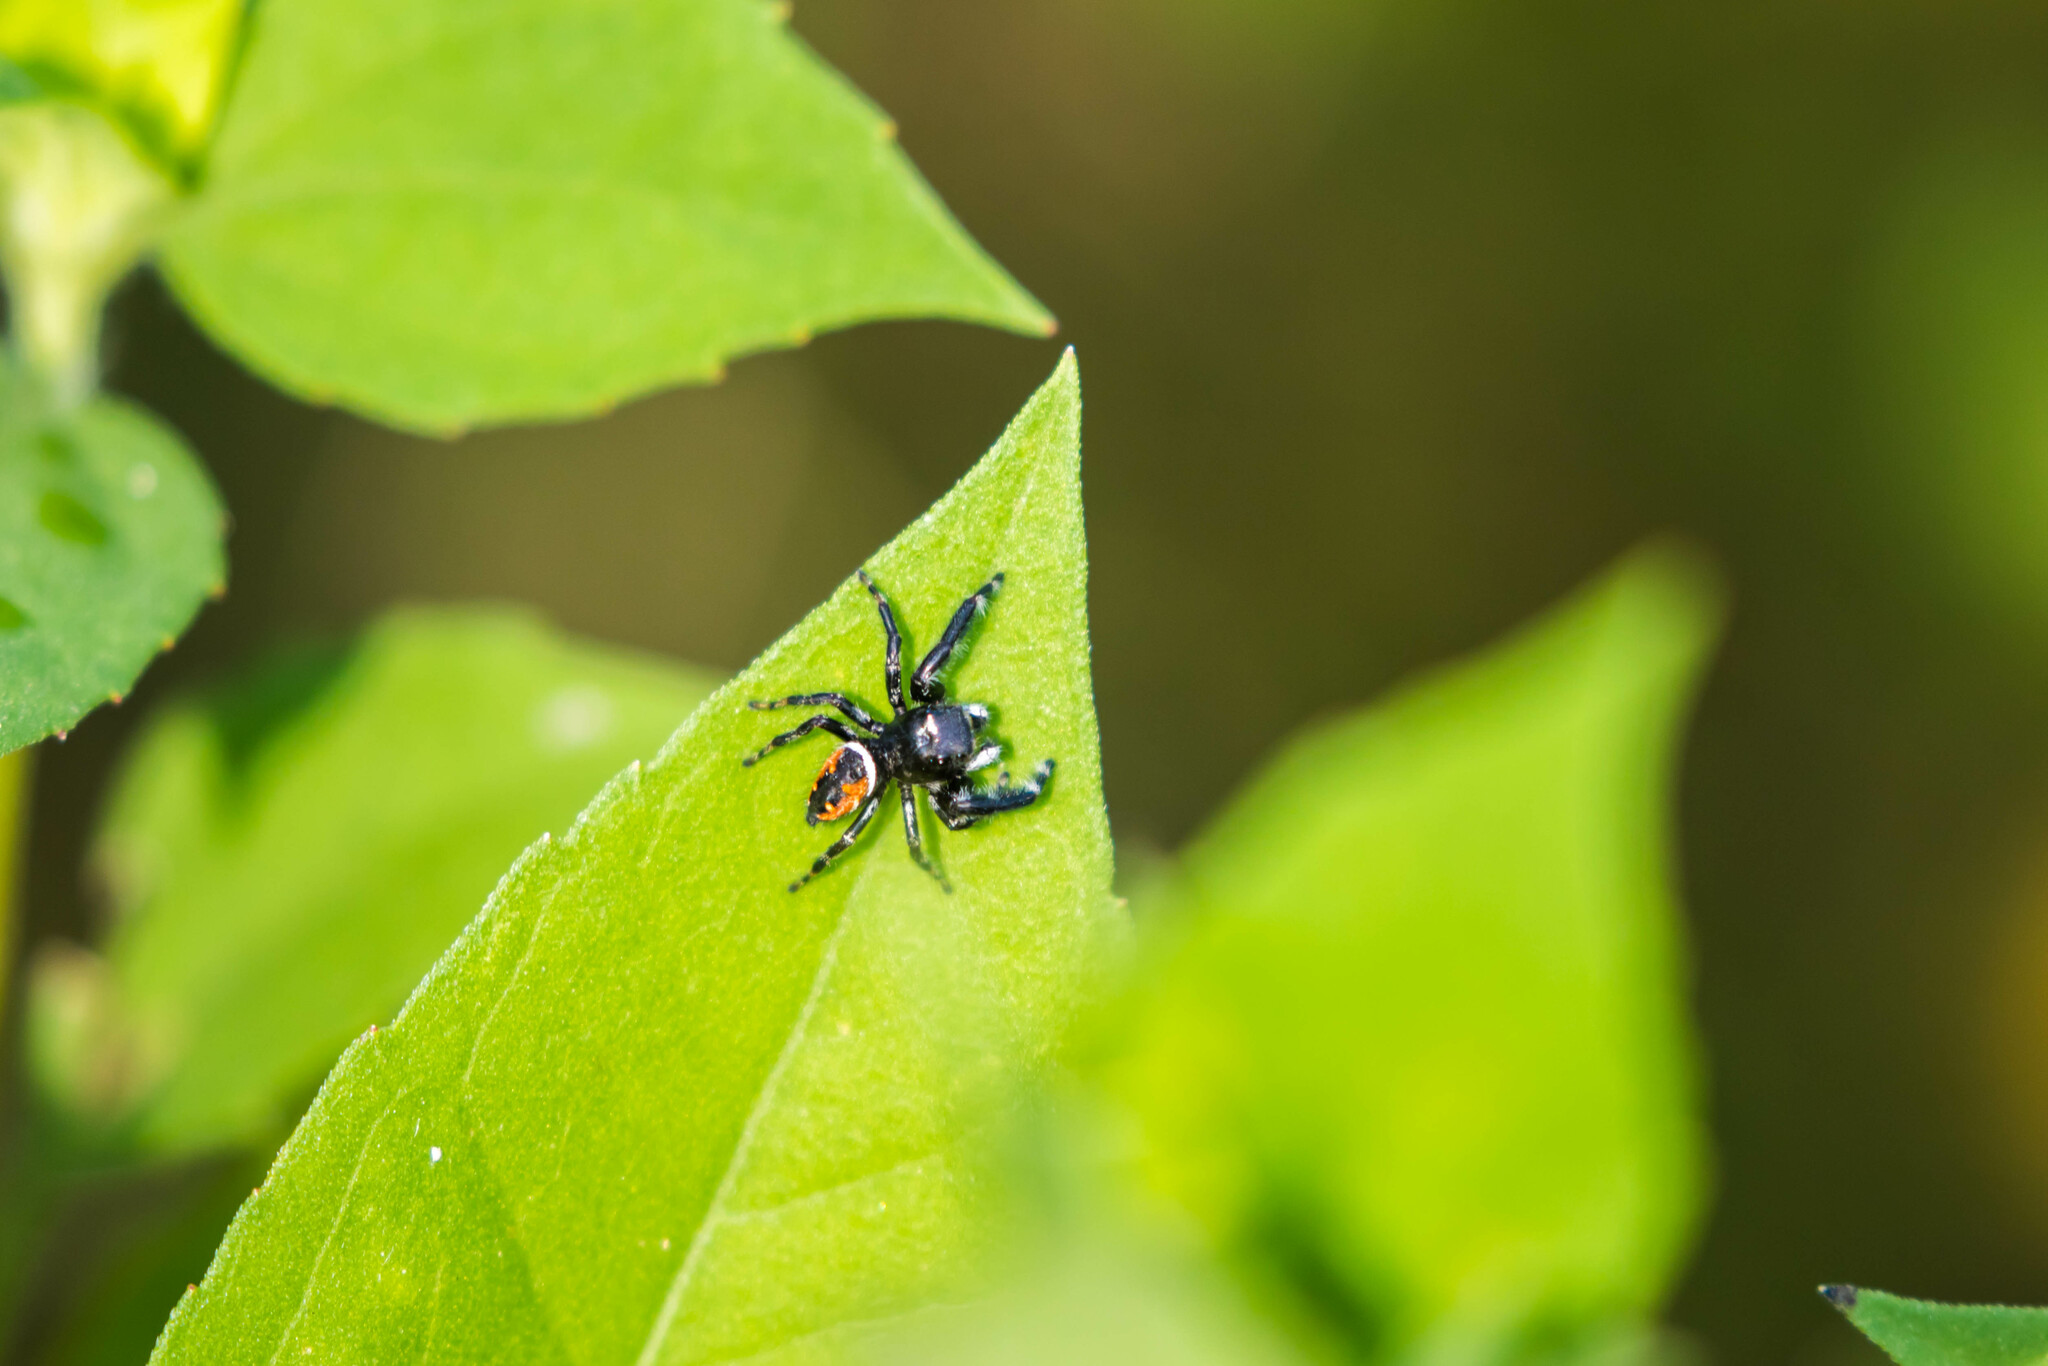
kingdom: Animalia
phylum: Arthropoda
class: Arachnida
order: Araneae
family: Salticidae
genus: Phidippus
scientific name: Phidippus clarus
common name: Brilliant jumping spider
